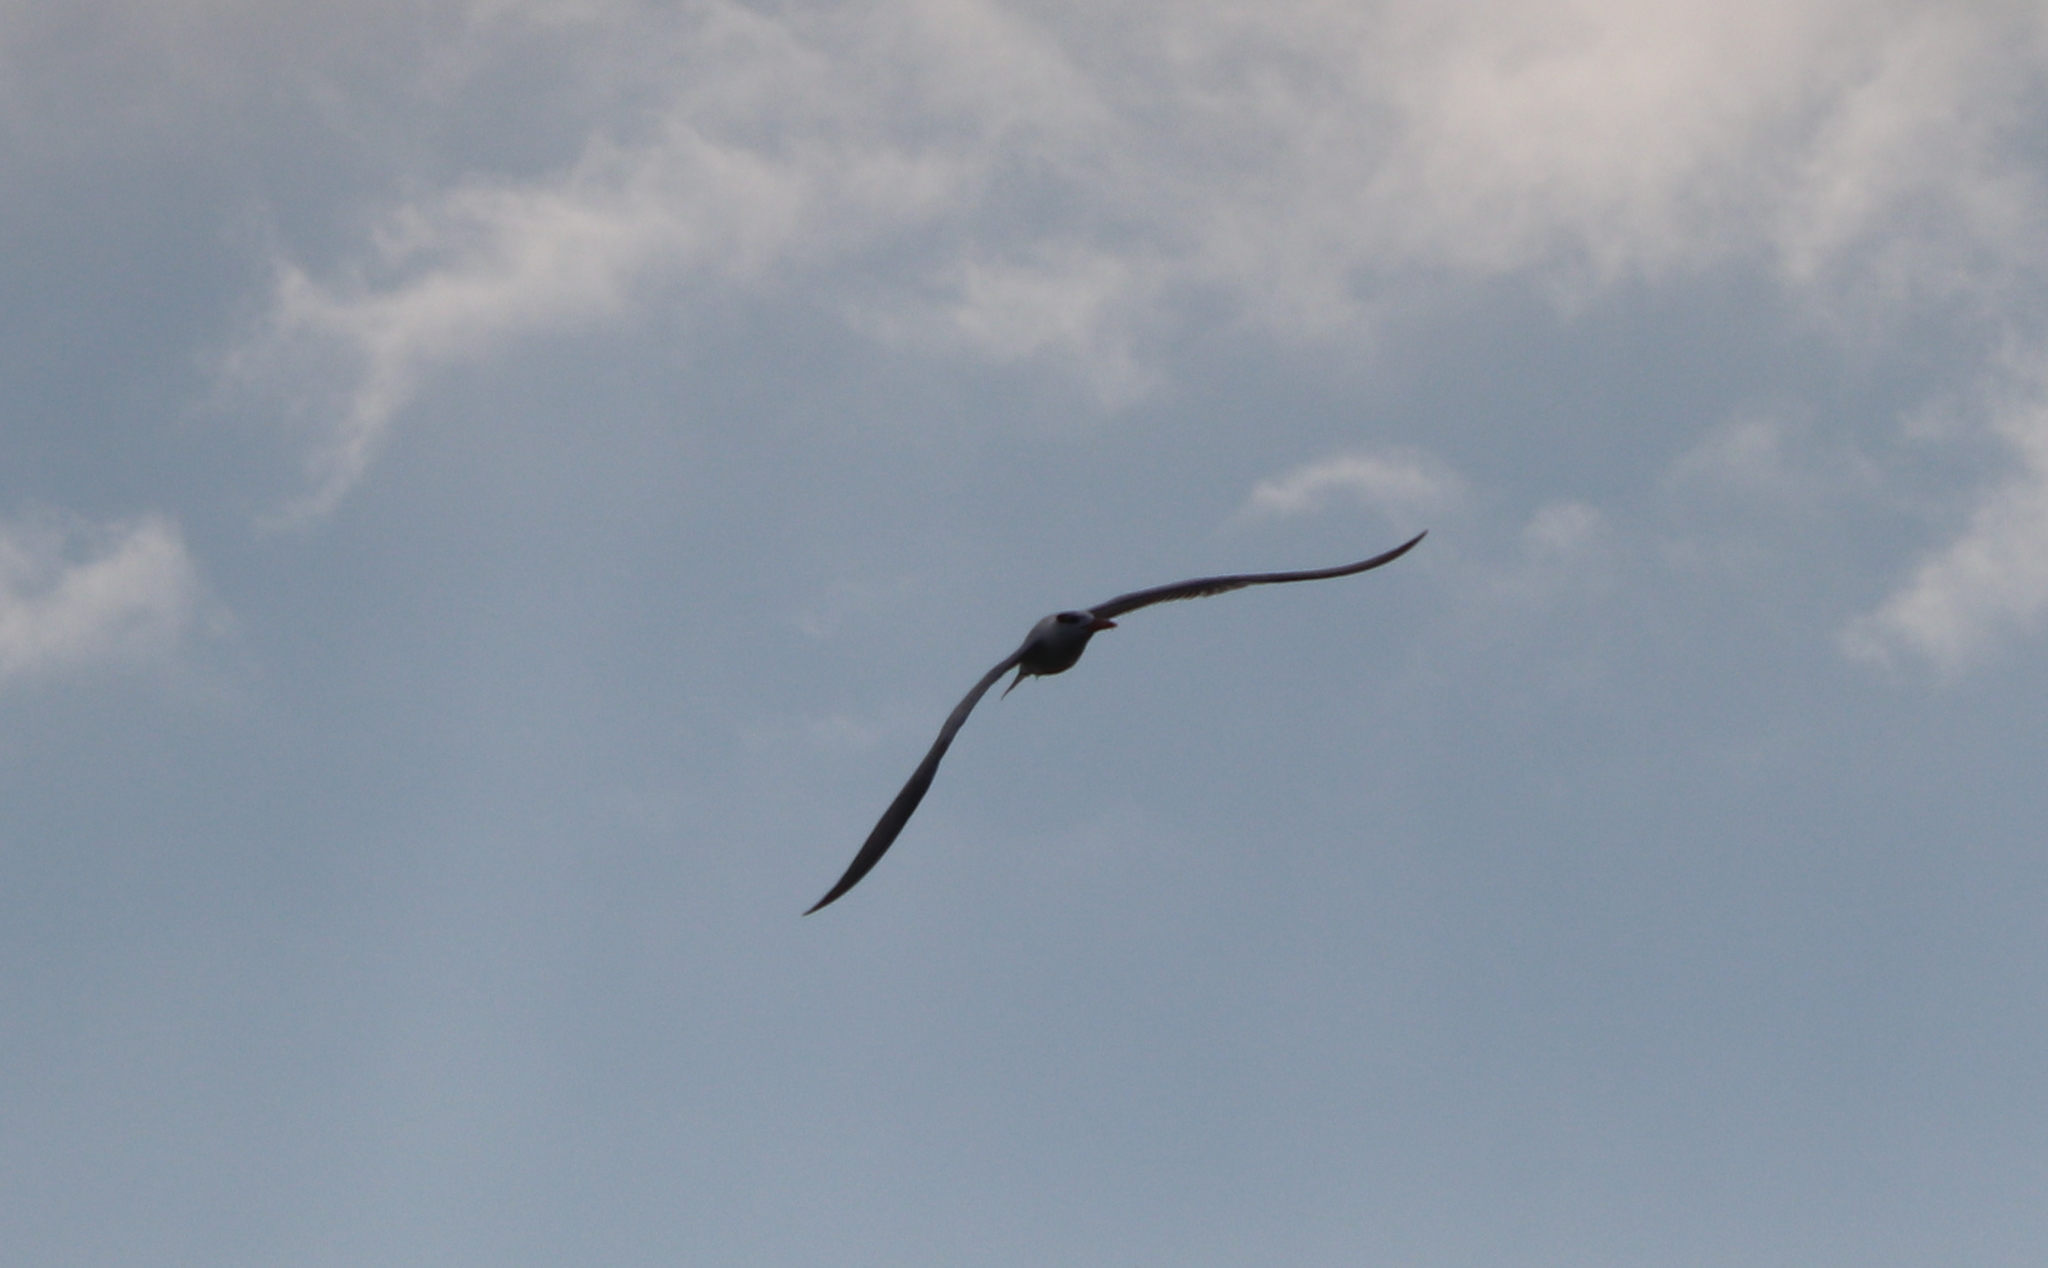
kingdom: Animalia
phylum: Chordata
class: Aves
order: Charadriiformes
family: Laridae
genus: Sterna
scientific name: Sterna forsteri
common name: Forster's tern
